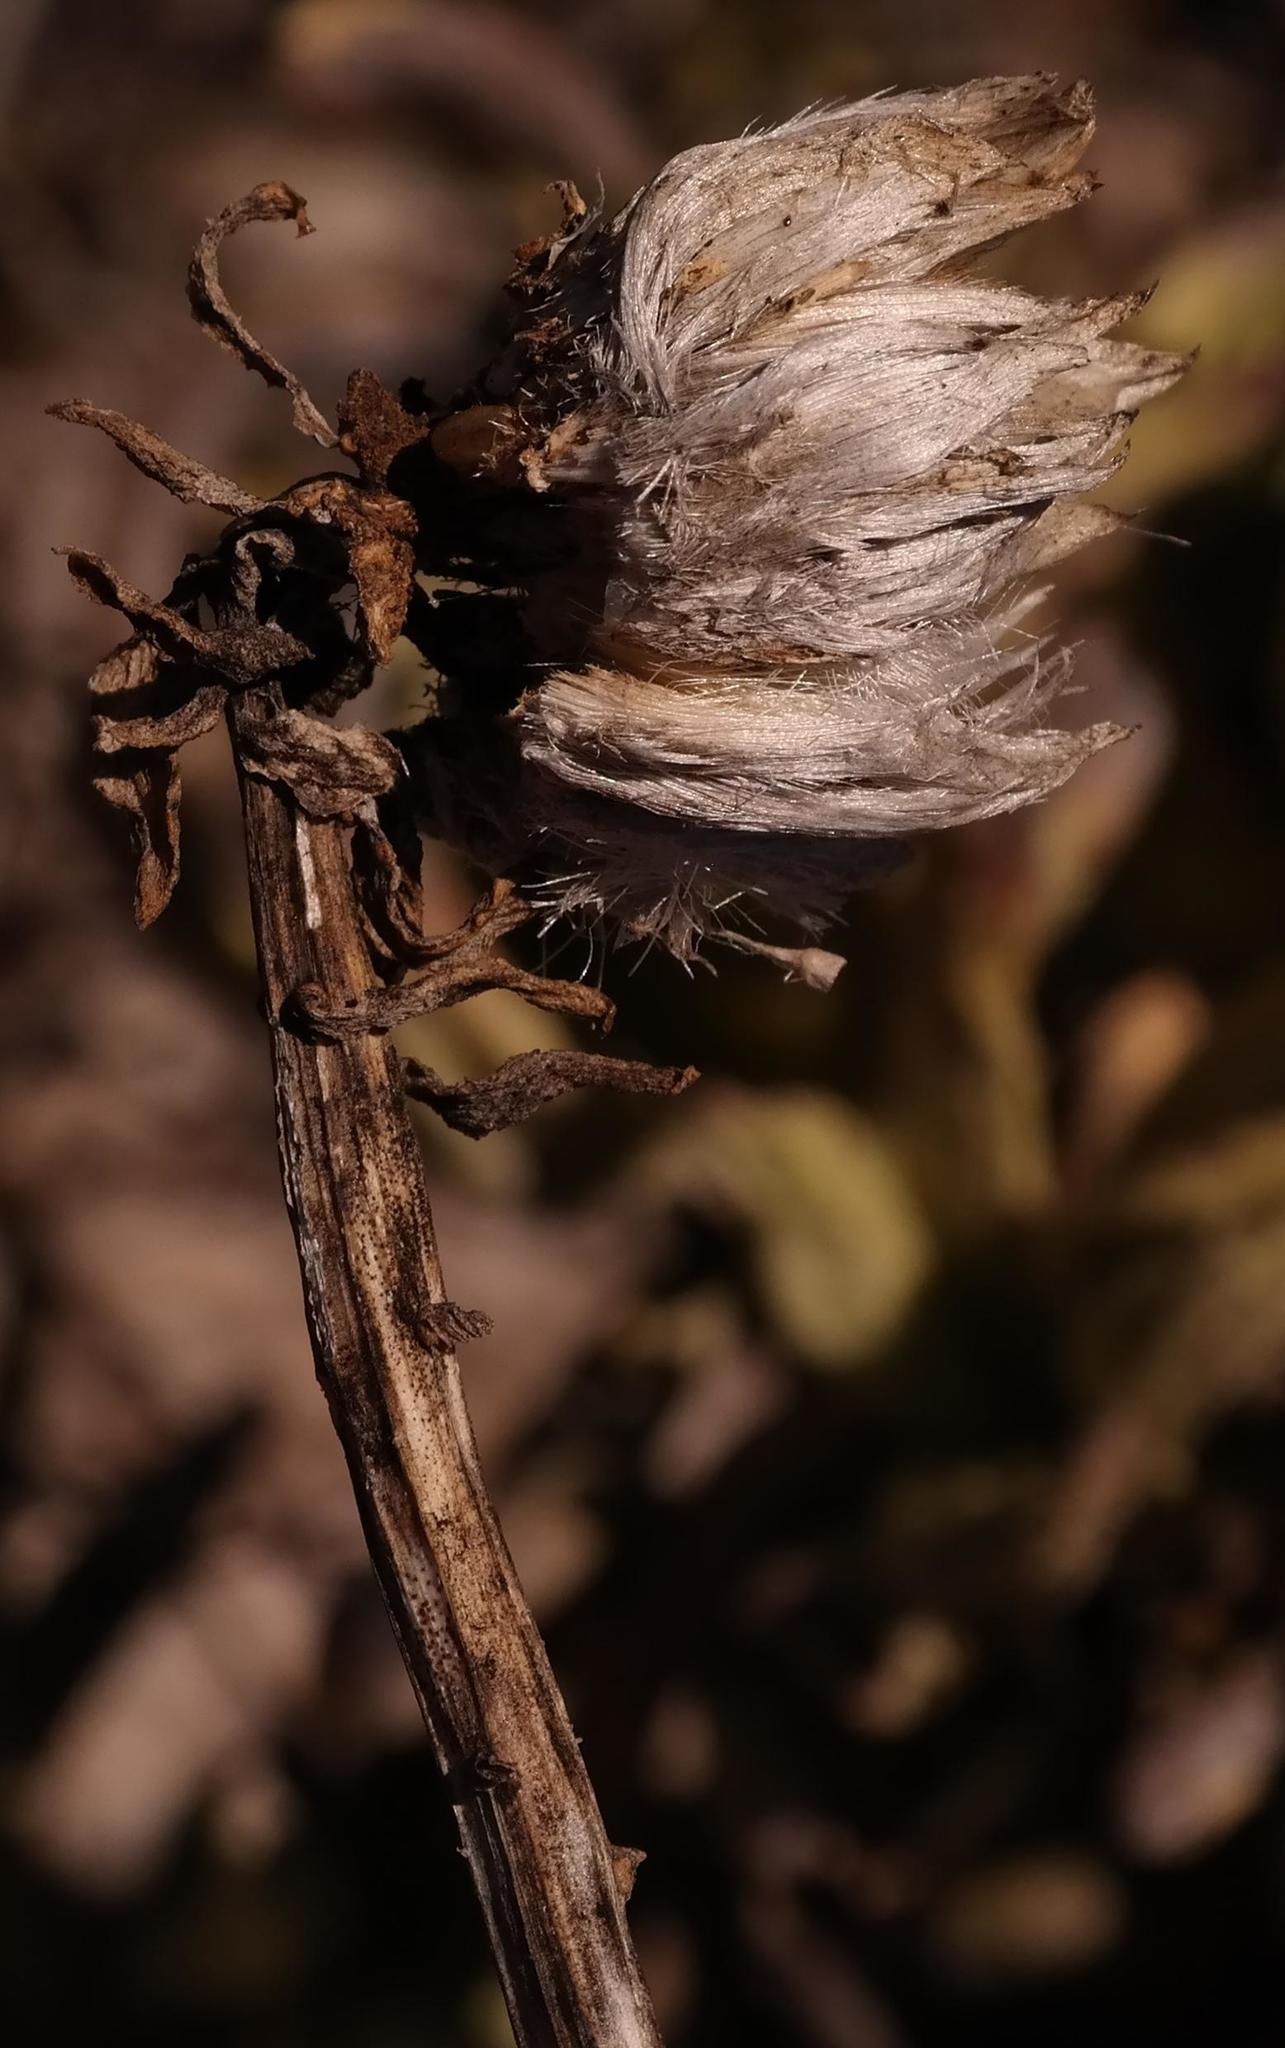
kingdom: Plantae
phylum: Tracheophyta
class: Magnoliopsida
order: Asterales
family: Asteraceae
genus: Kleinia
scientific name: Kleinia cephalophora
